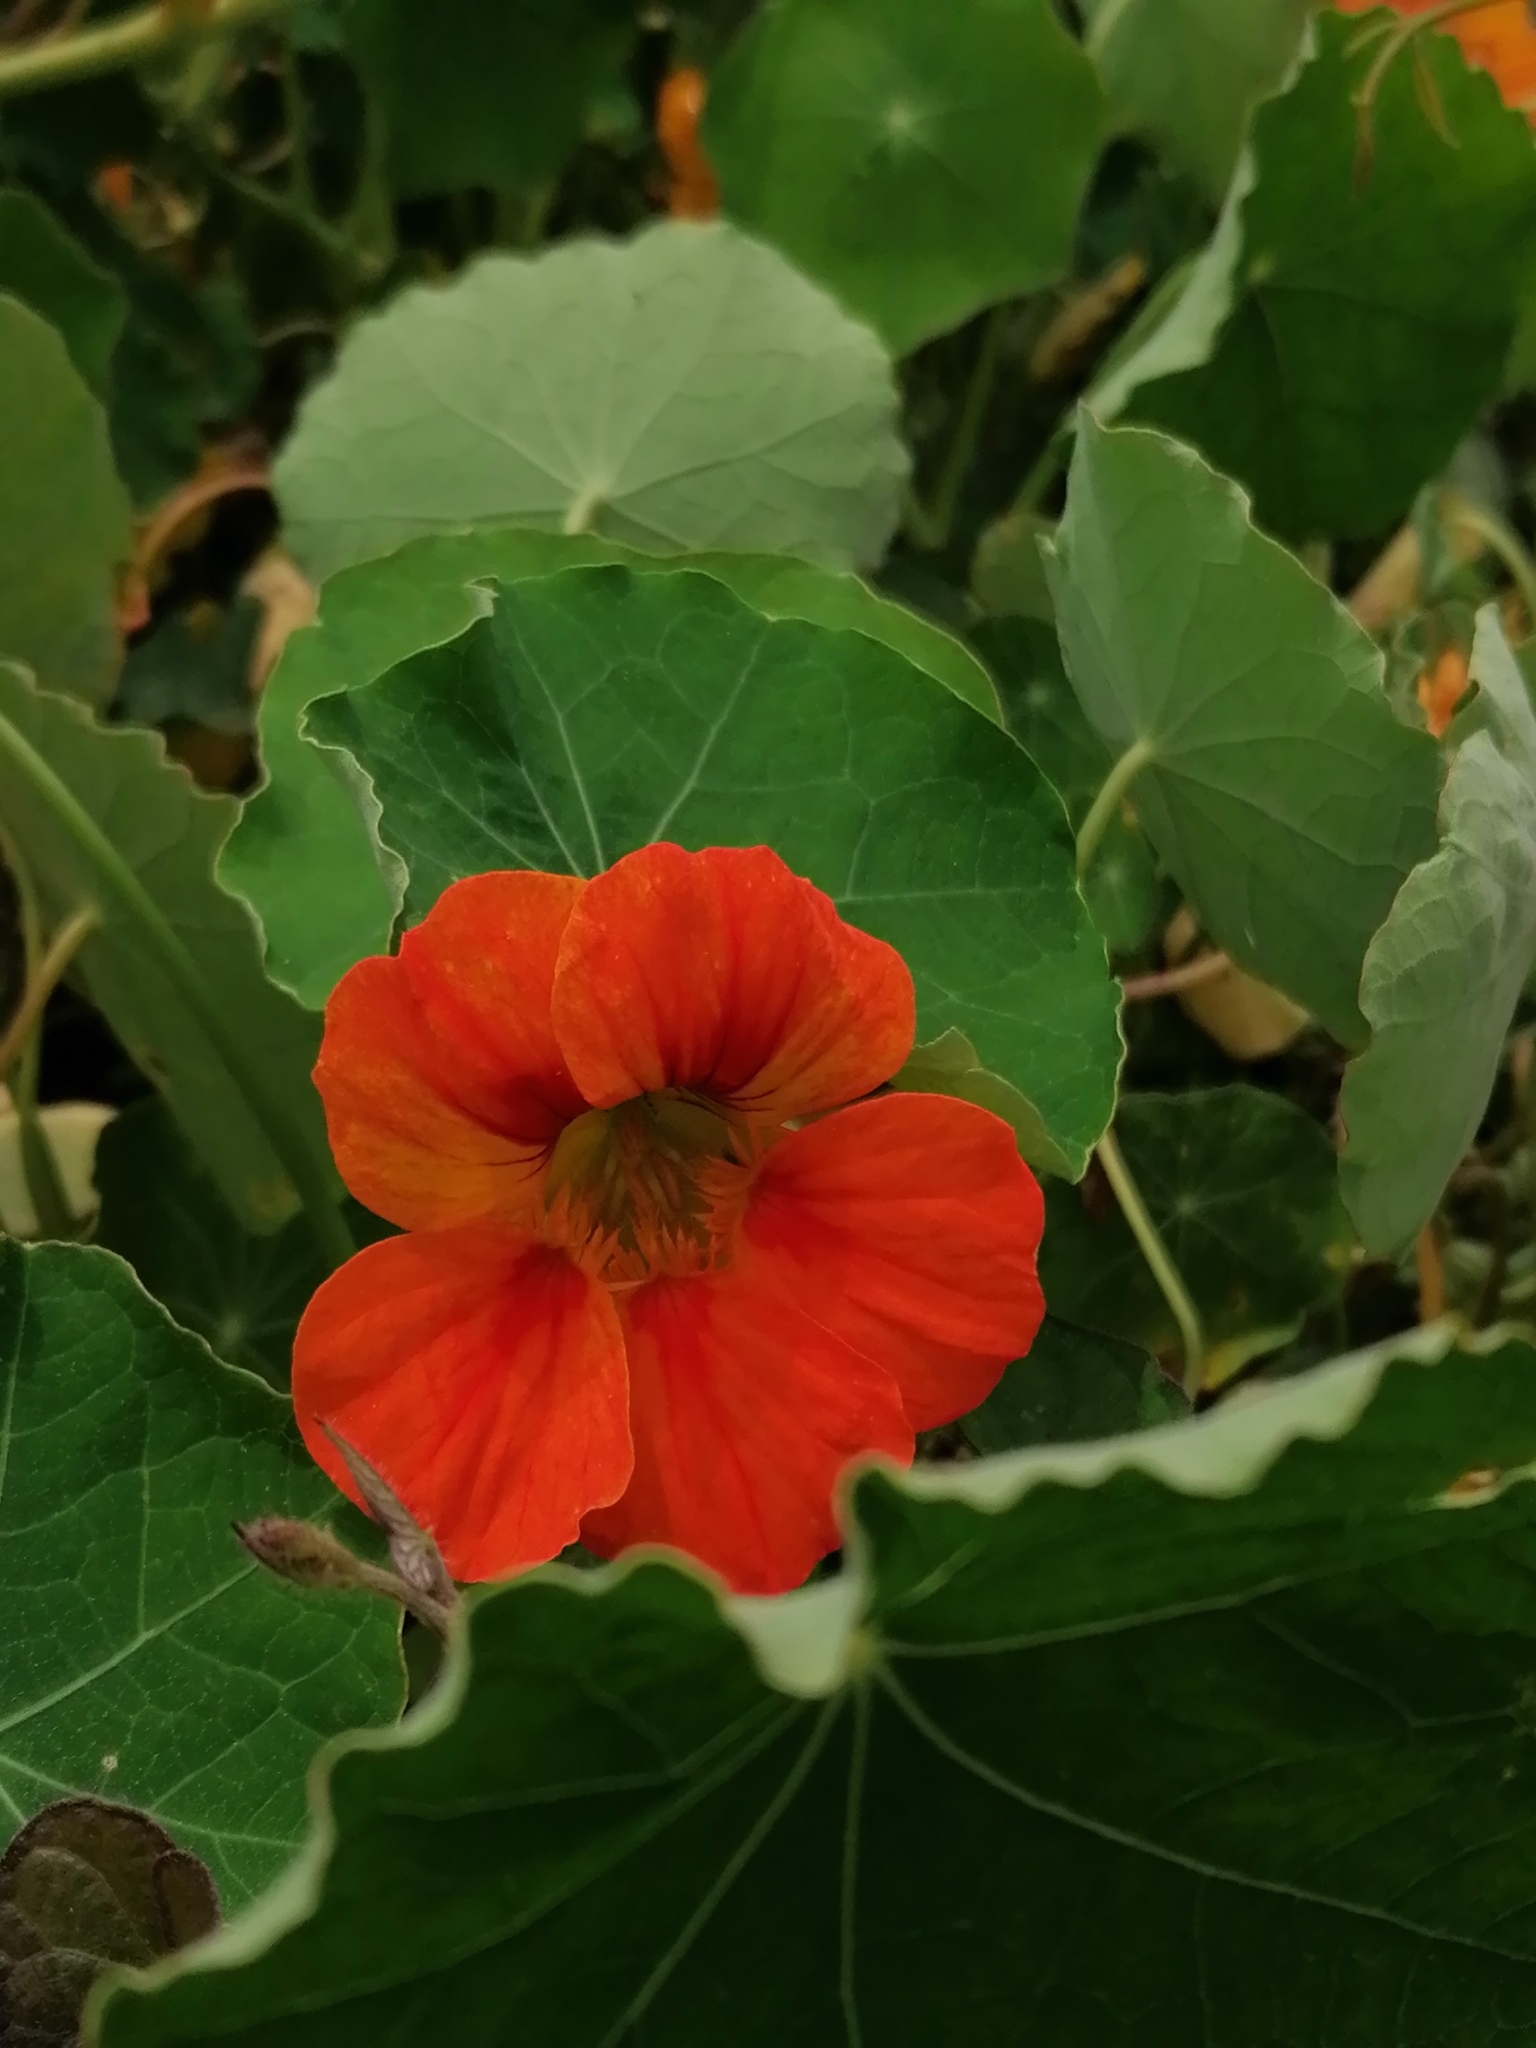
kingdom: Plantae
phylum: Tracheophyta
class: Magnoliopsida
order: Brassicales
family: Tropaeolaceae
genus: Tropaeolum
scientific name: Tropaeolum majus
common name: Nasturtium
